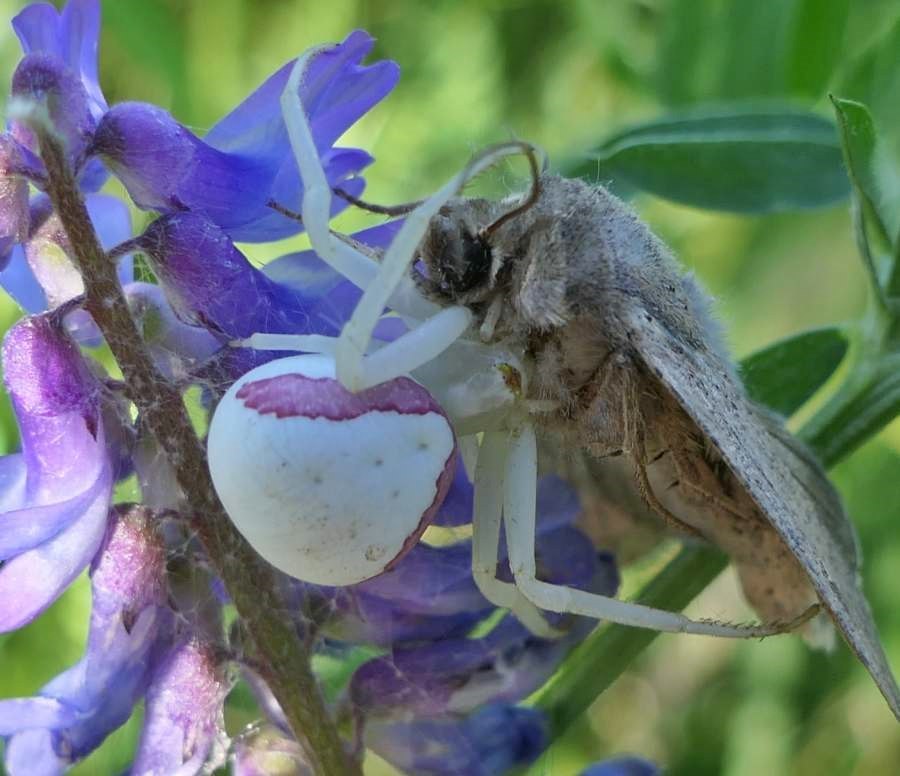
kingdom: Animalia
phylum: Arthropoda
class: Arachnida
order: Araneae
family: Thomisidae
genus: Misumena
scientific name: Misumena vatia
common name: Goldenrod crab spider
